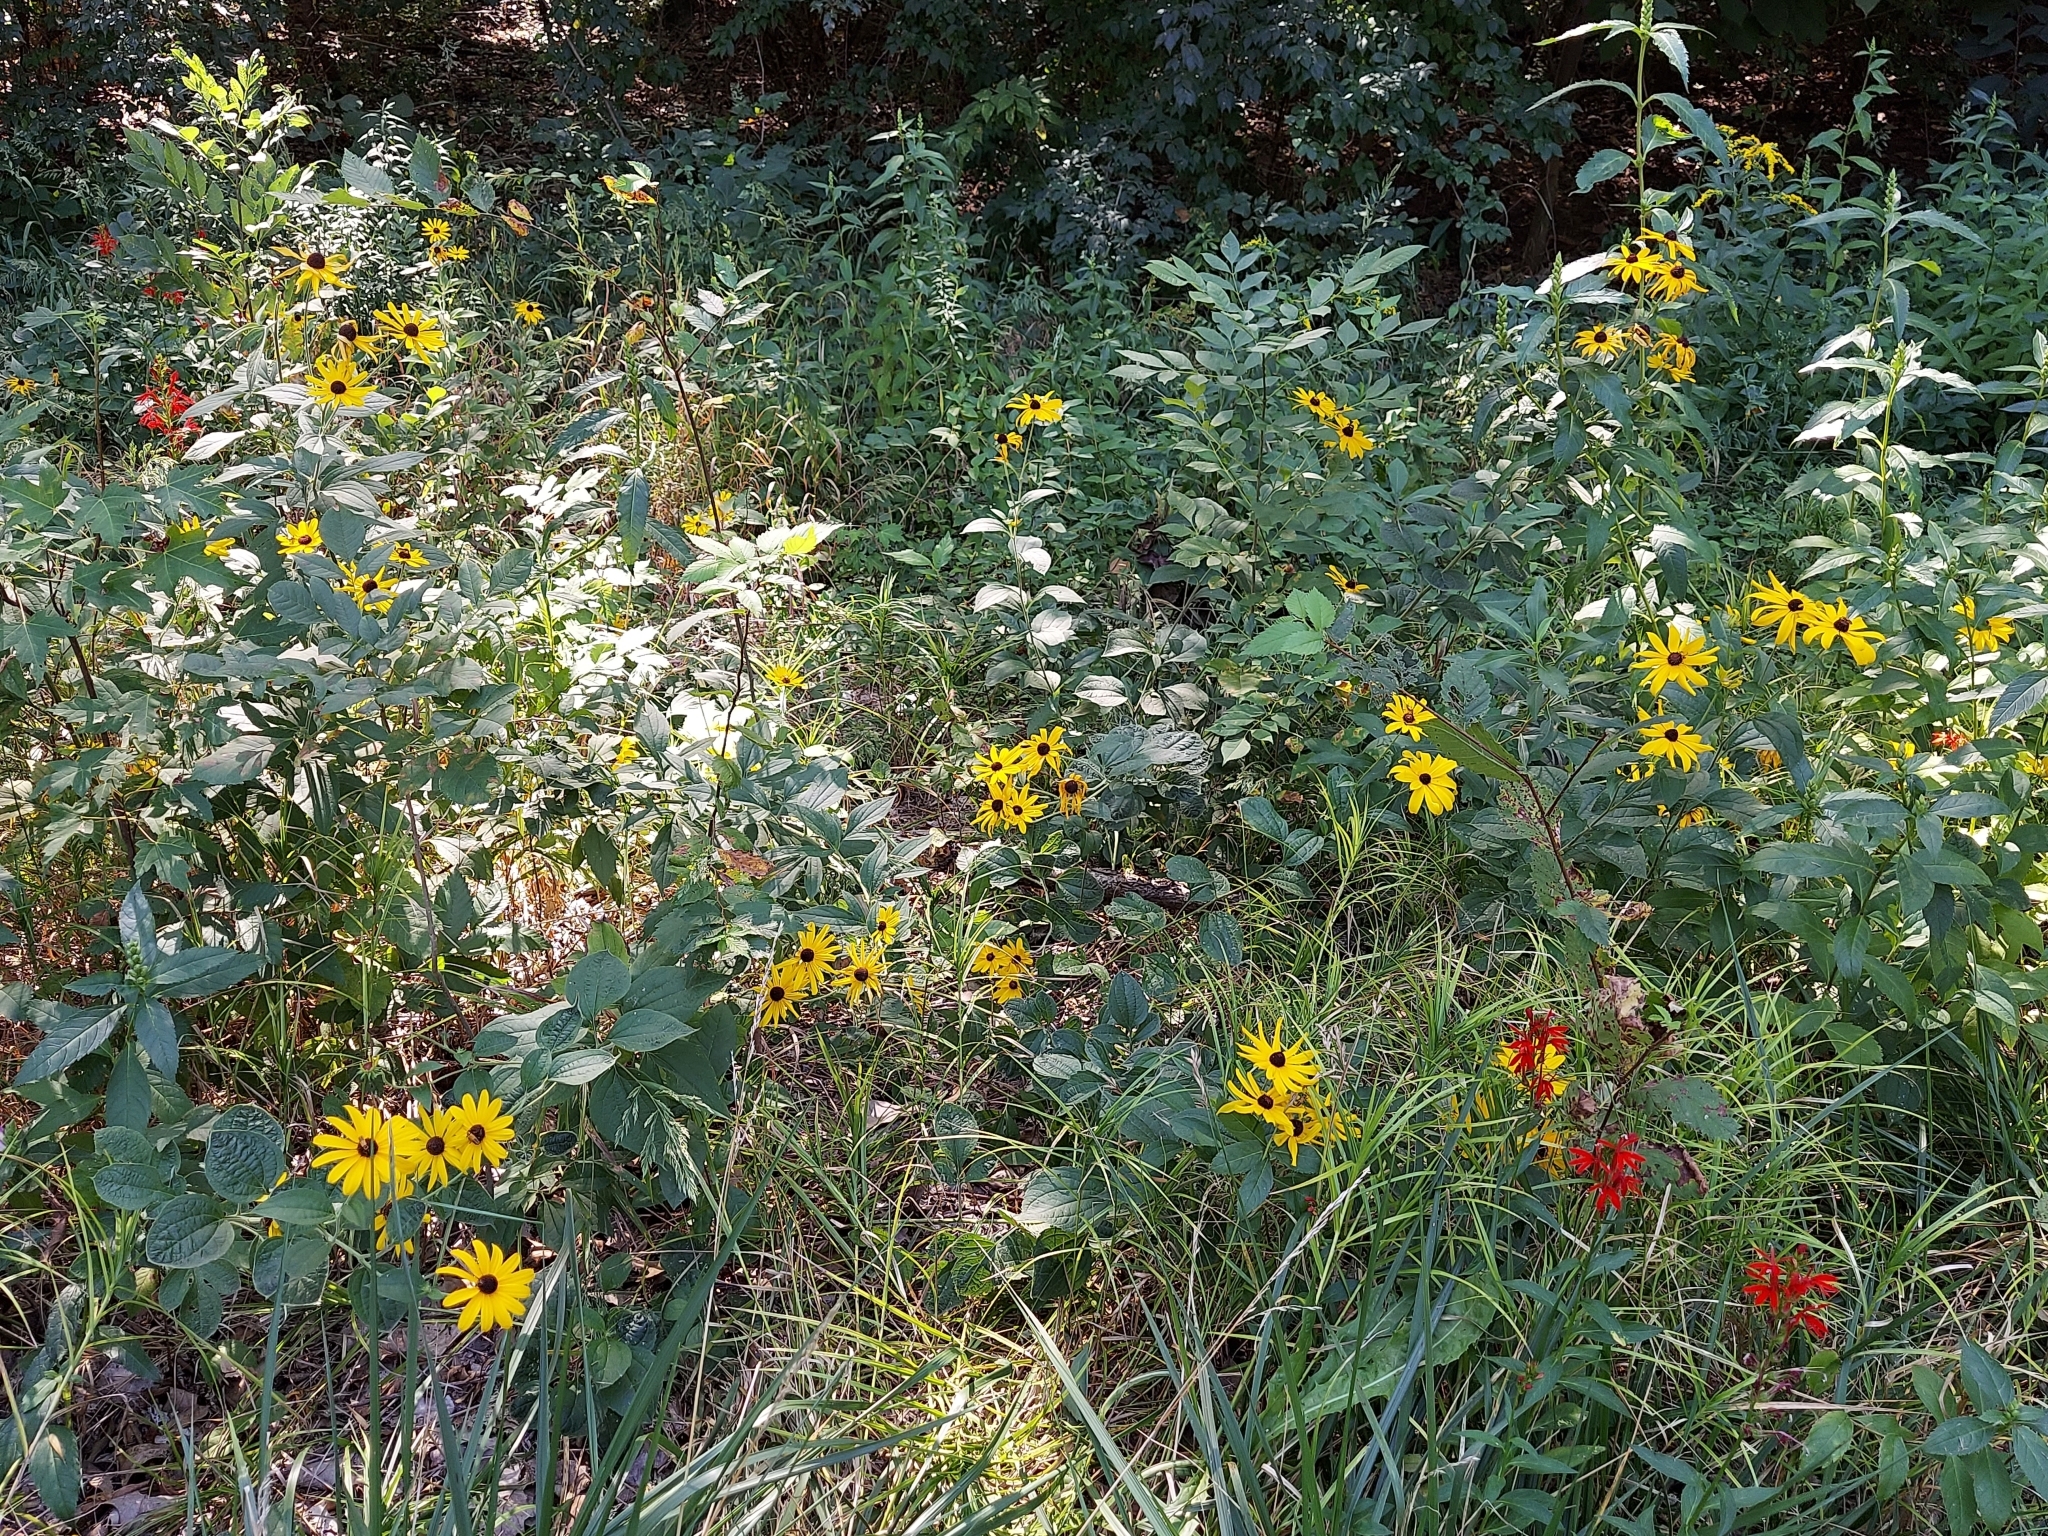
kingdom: Plantae
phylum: Tracheophyta
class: Magnoliopsida
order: Asterales
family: Campanulaceae
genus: Lobelia
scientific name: Lobelia cardinalis
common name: Cardinal flower
